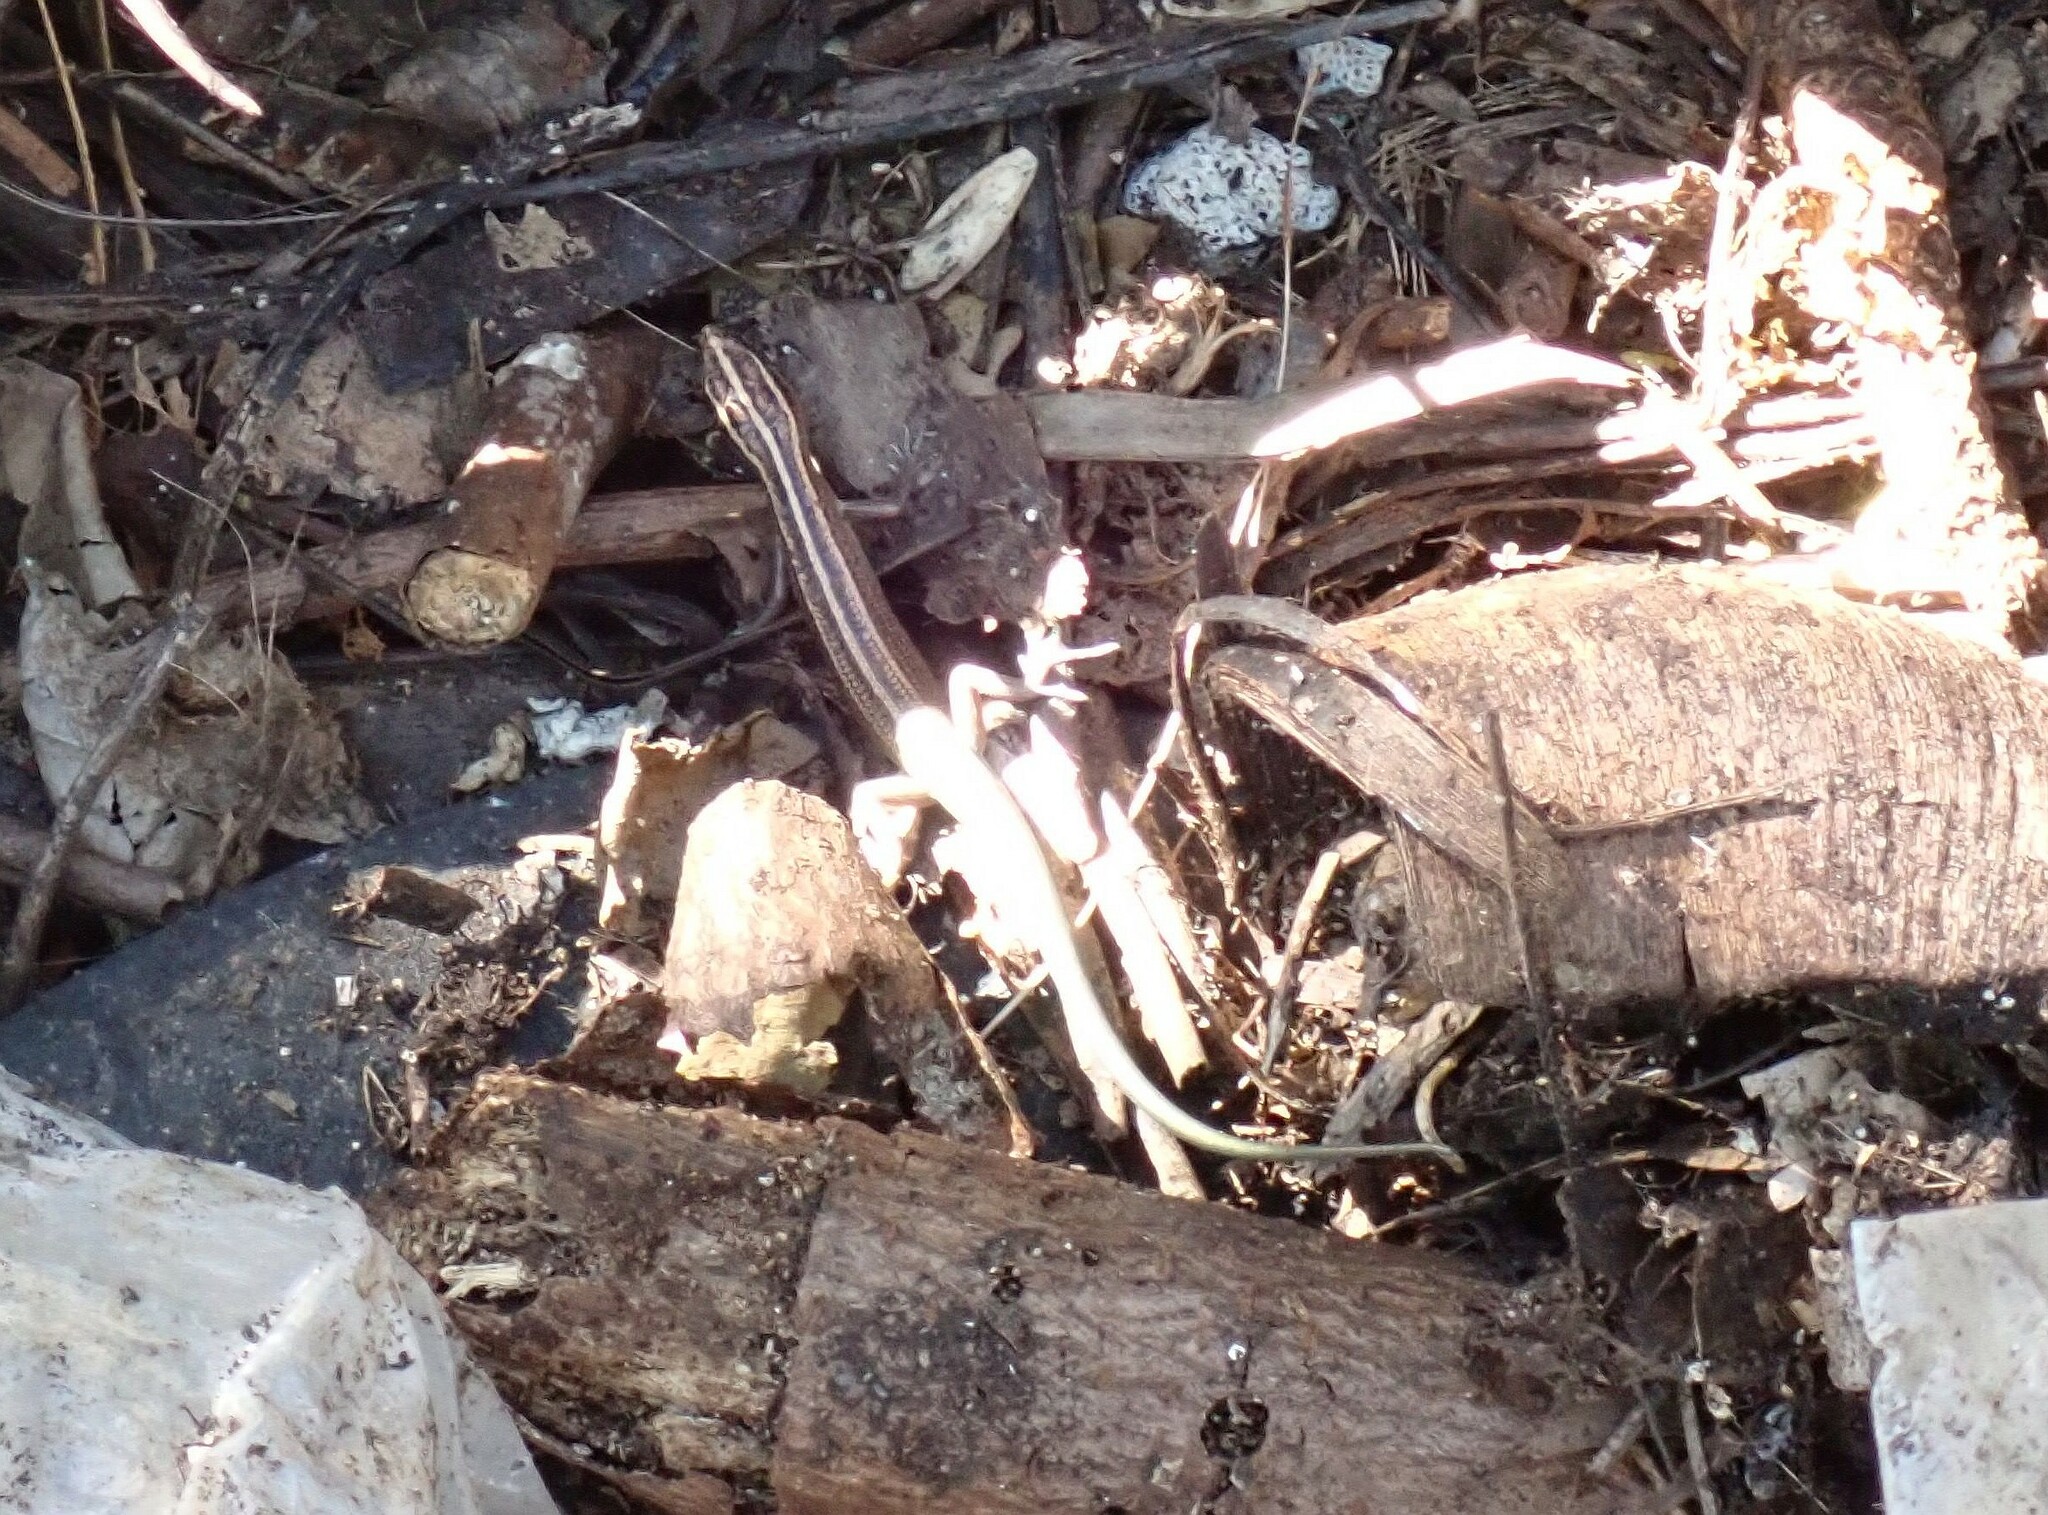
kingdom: Animalia
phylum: Chordata
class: Squamata
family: Scincidae
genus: Emoia
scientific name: Emoia cyanura
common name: Copper-tailed skink
